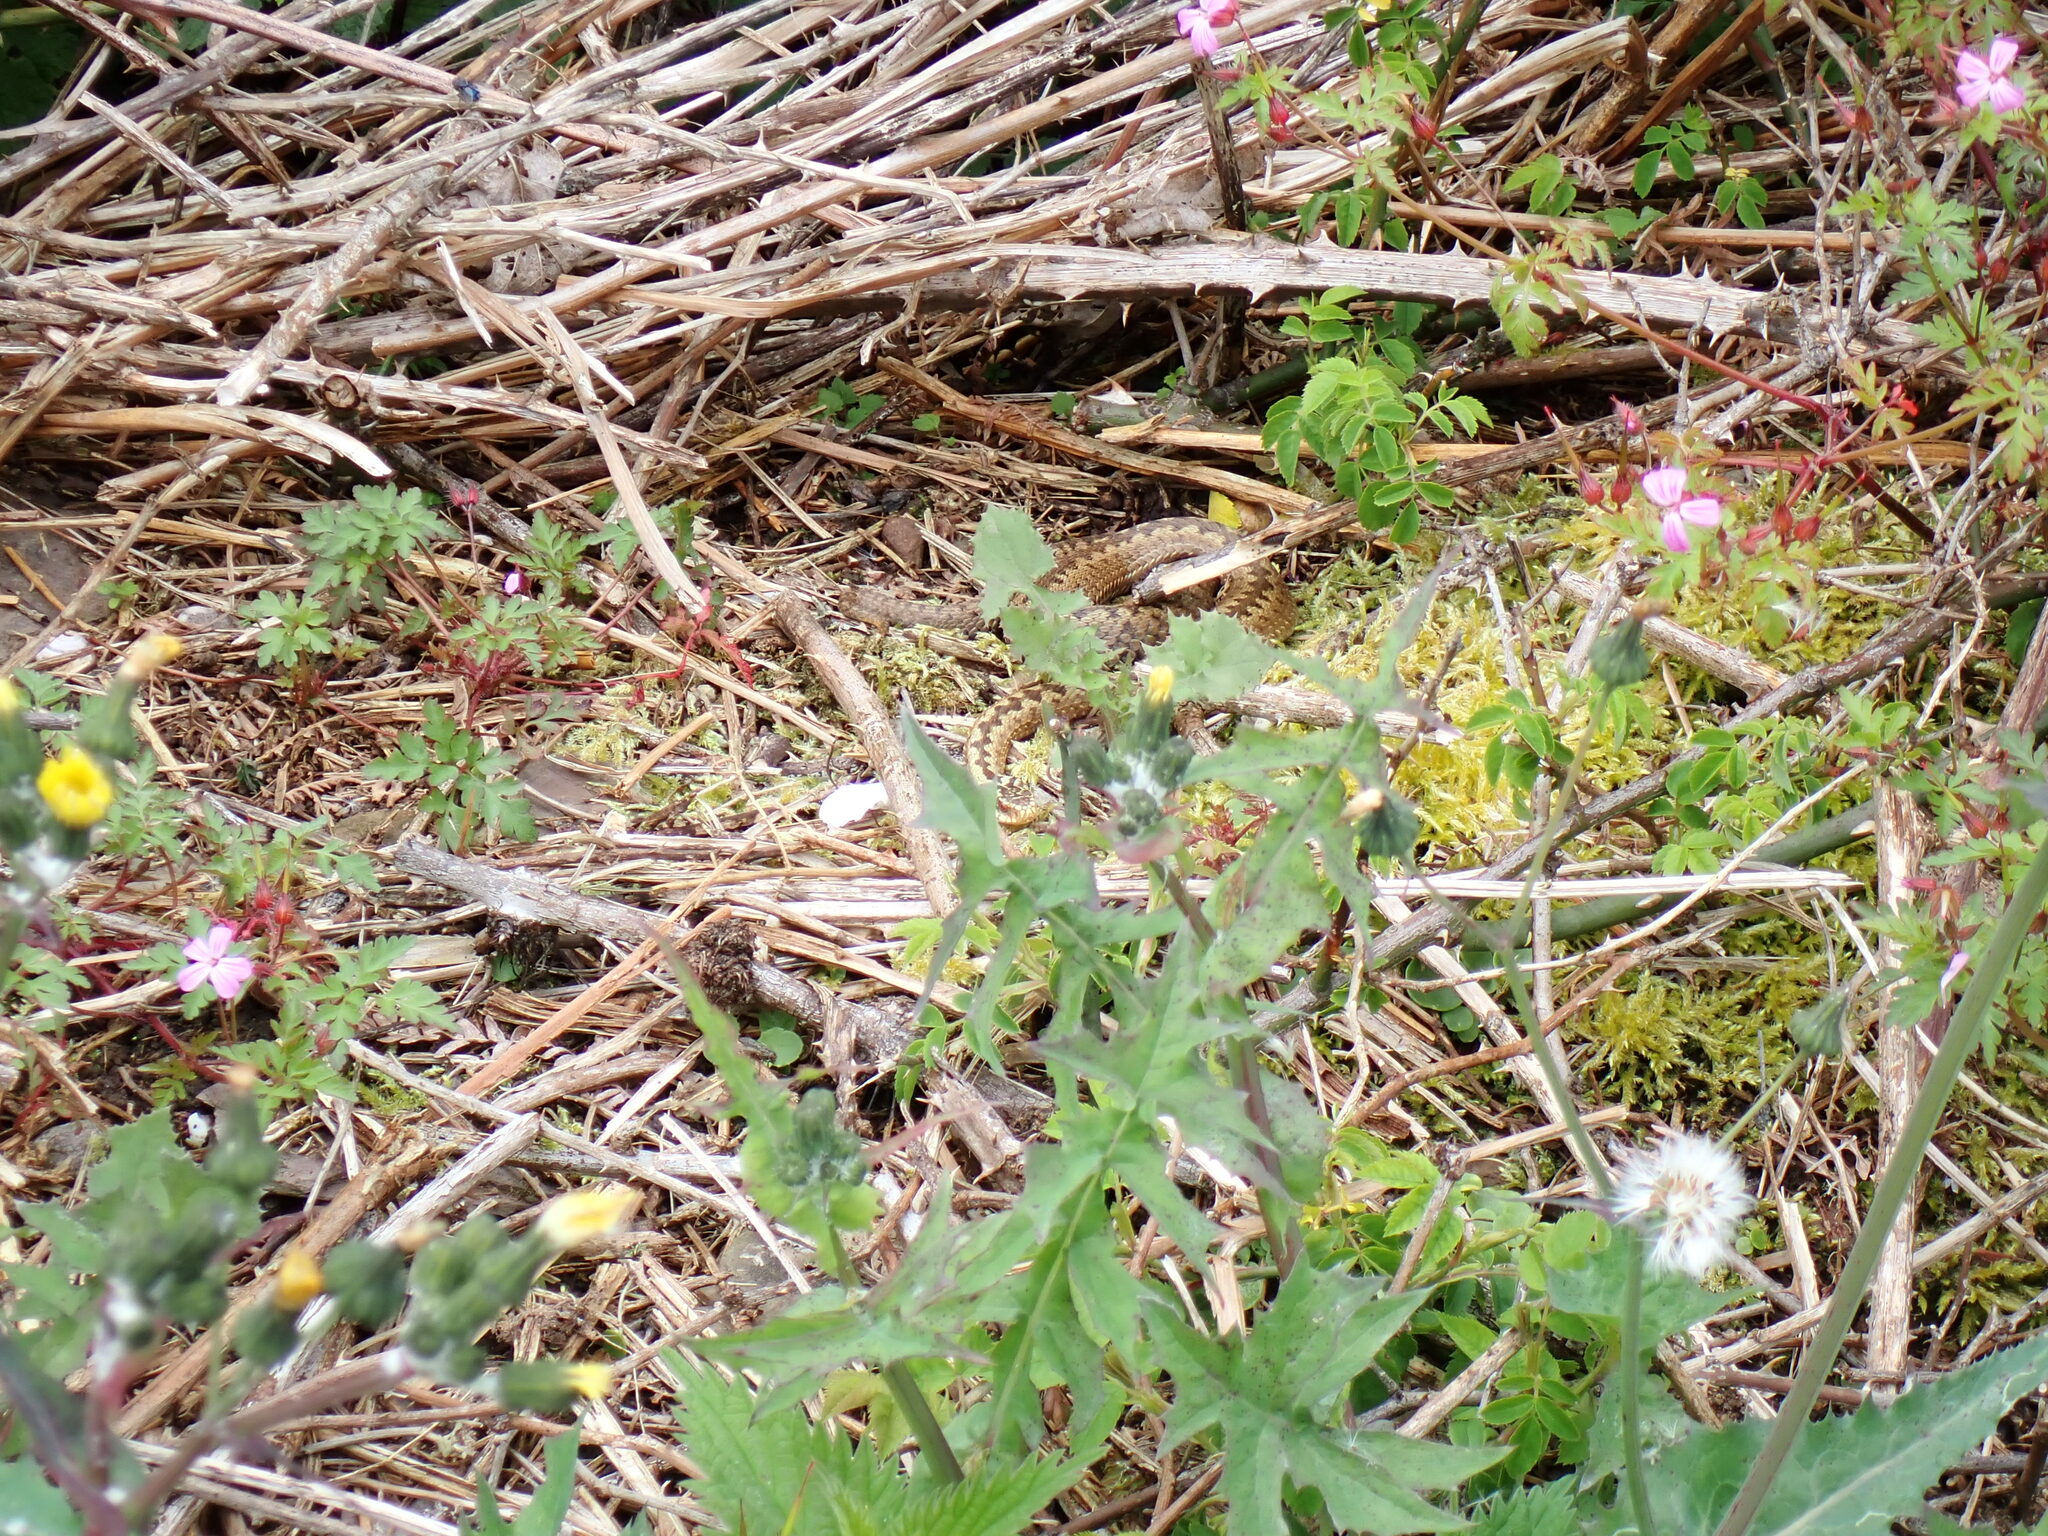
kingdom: Animalia
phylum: Chordata
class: Squamata
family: Viperidae
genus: Vipera
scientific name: Vipera berus
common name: Adder
